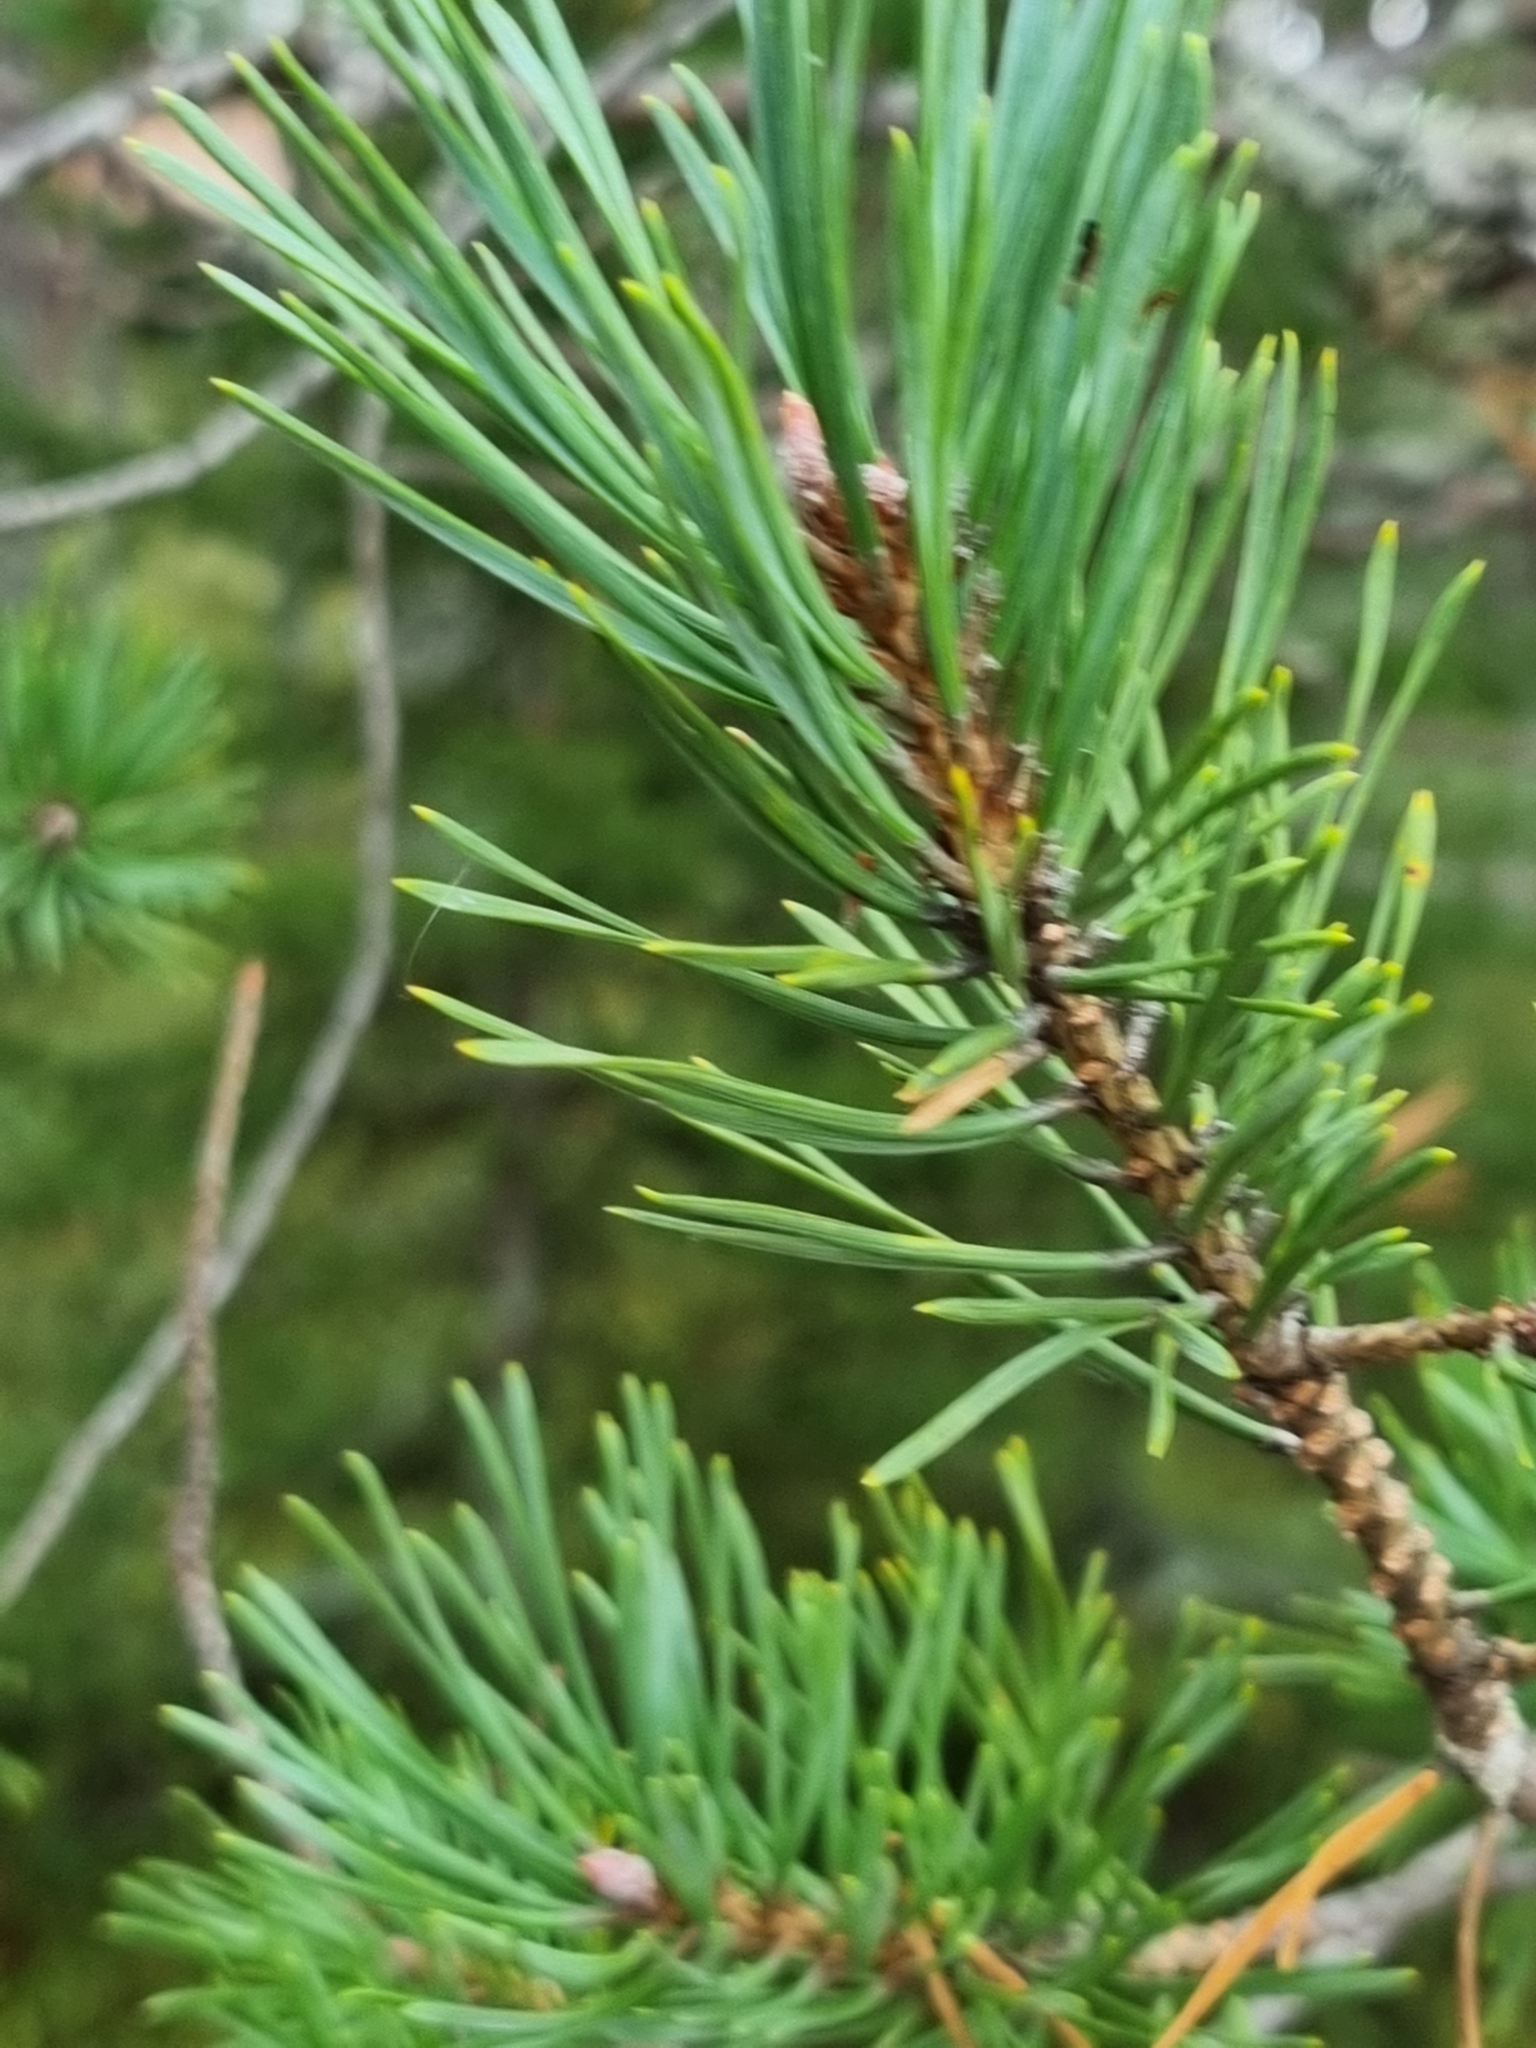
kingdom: Plantae
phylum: Tracheophyta
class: Pinopsida
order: Pinales
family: Pinaceae
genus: Pinus
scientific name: Pinus sylvestris
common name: Scots pine
